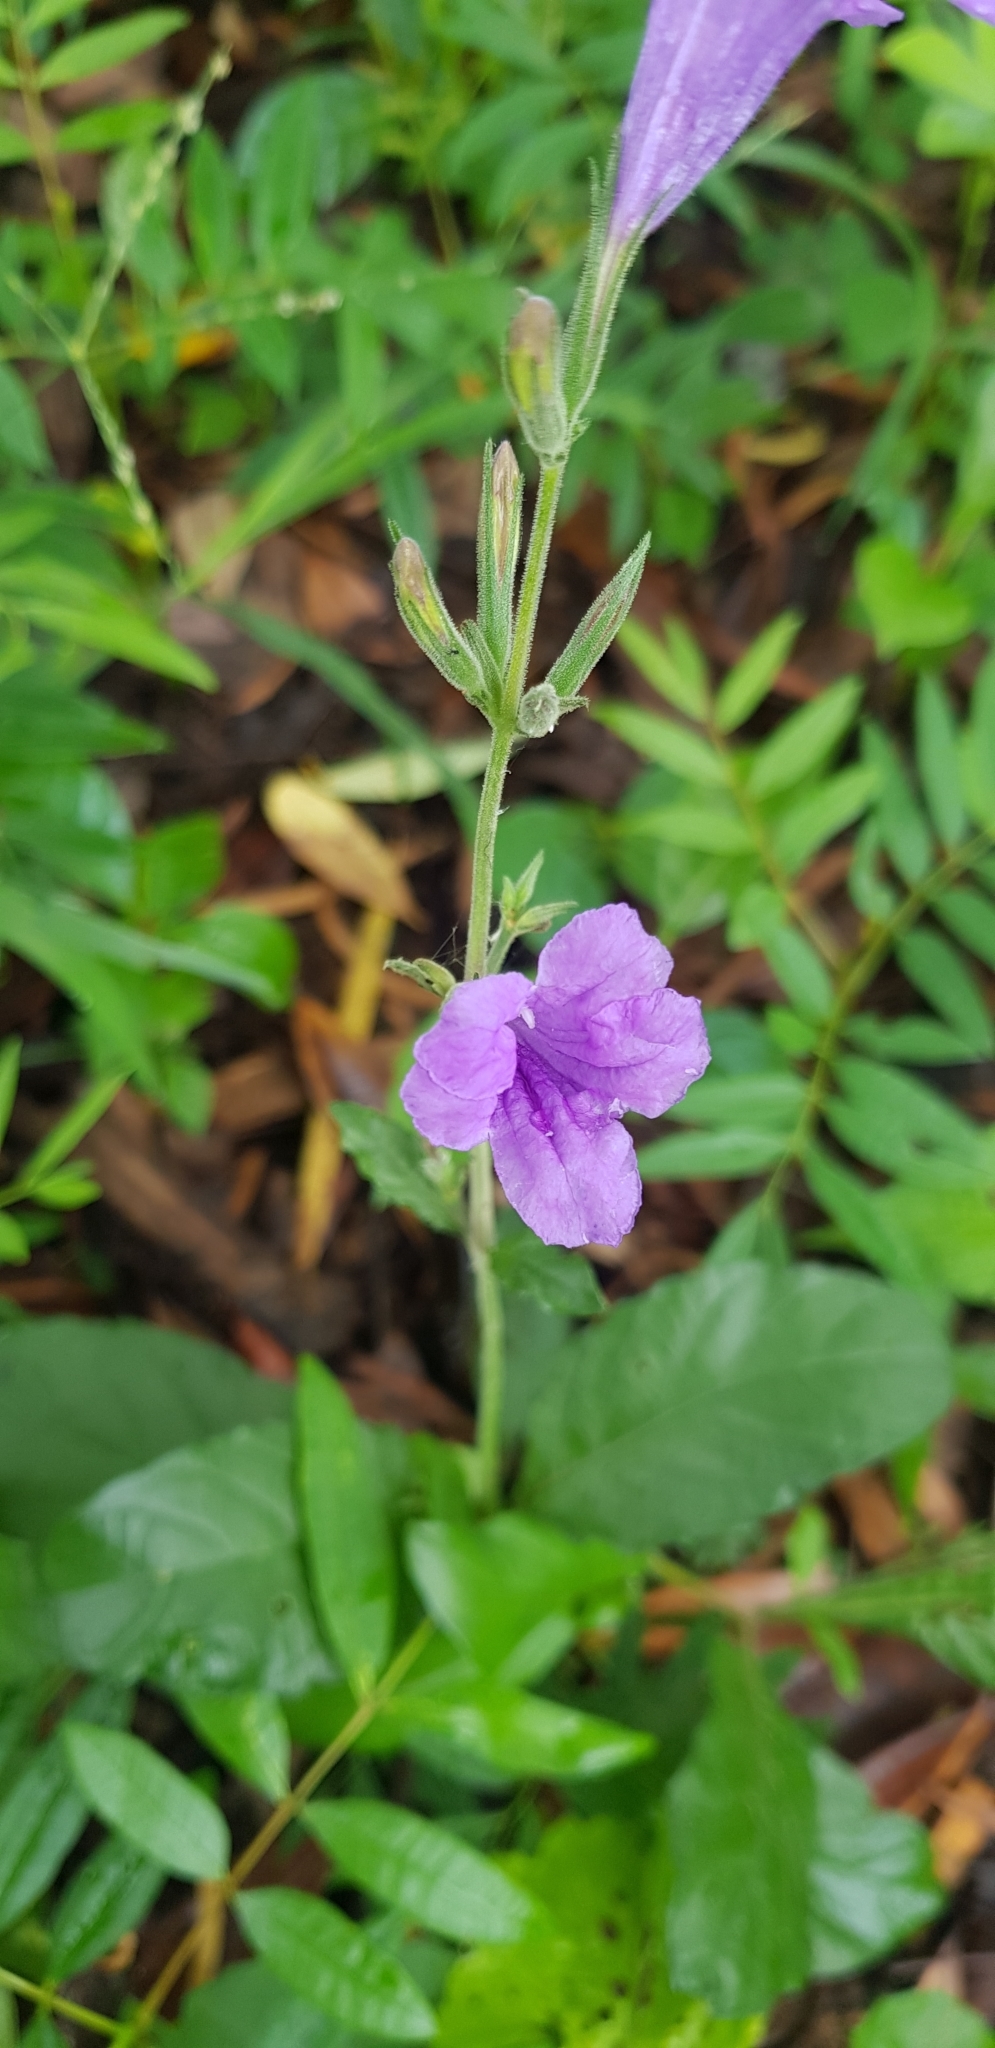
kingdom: Plantae
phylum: Tracheophyta
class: Magnoliopsida
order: Lamiales
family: Acanthaceae
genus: Ruellia
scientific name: Ruellia ciliatiflora
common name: Hairyflower wild petunia
